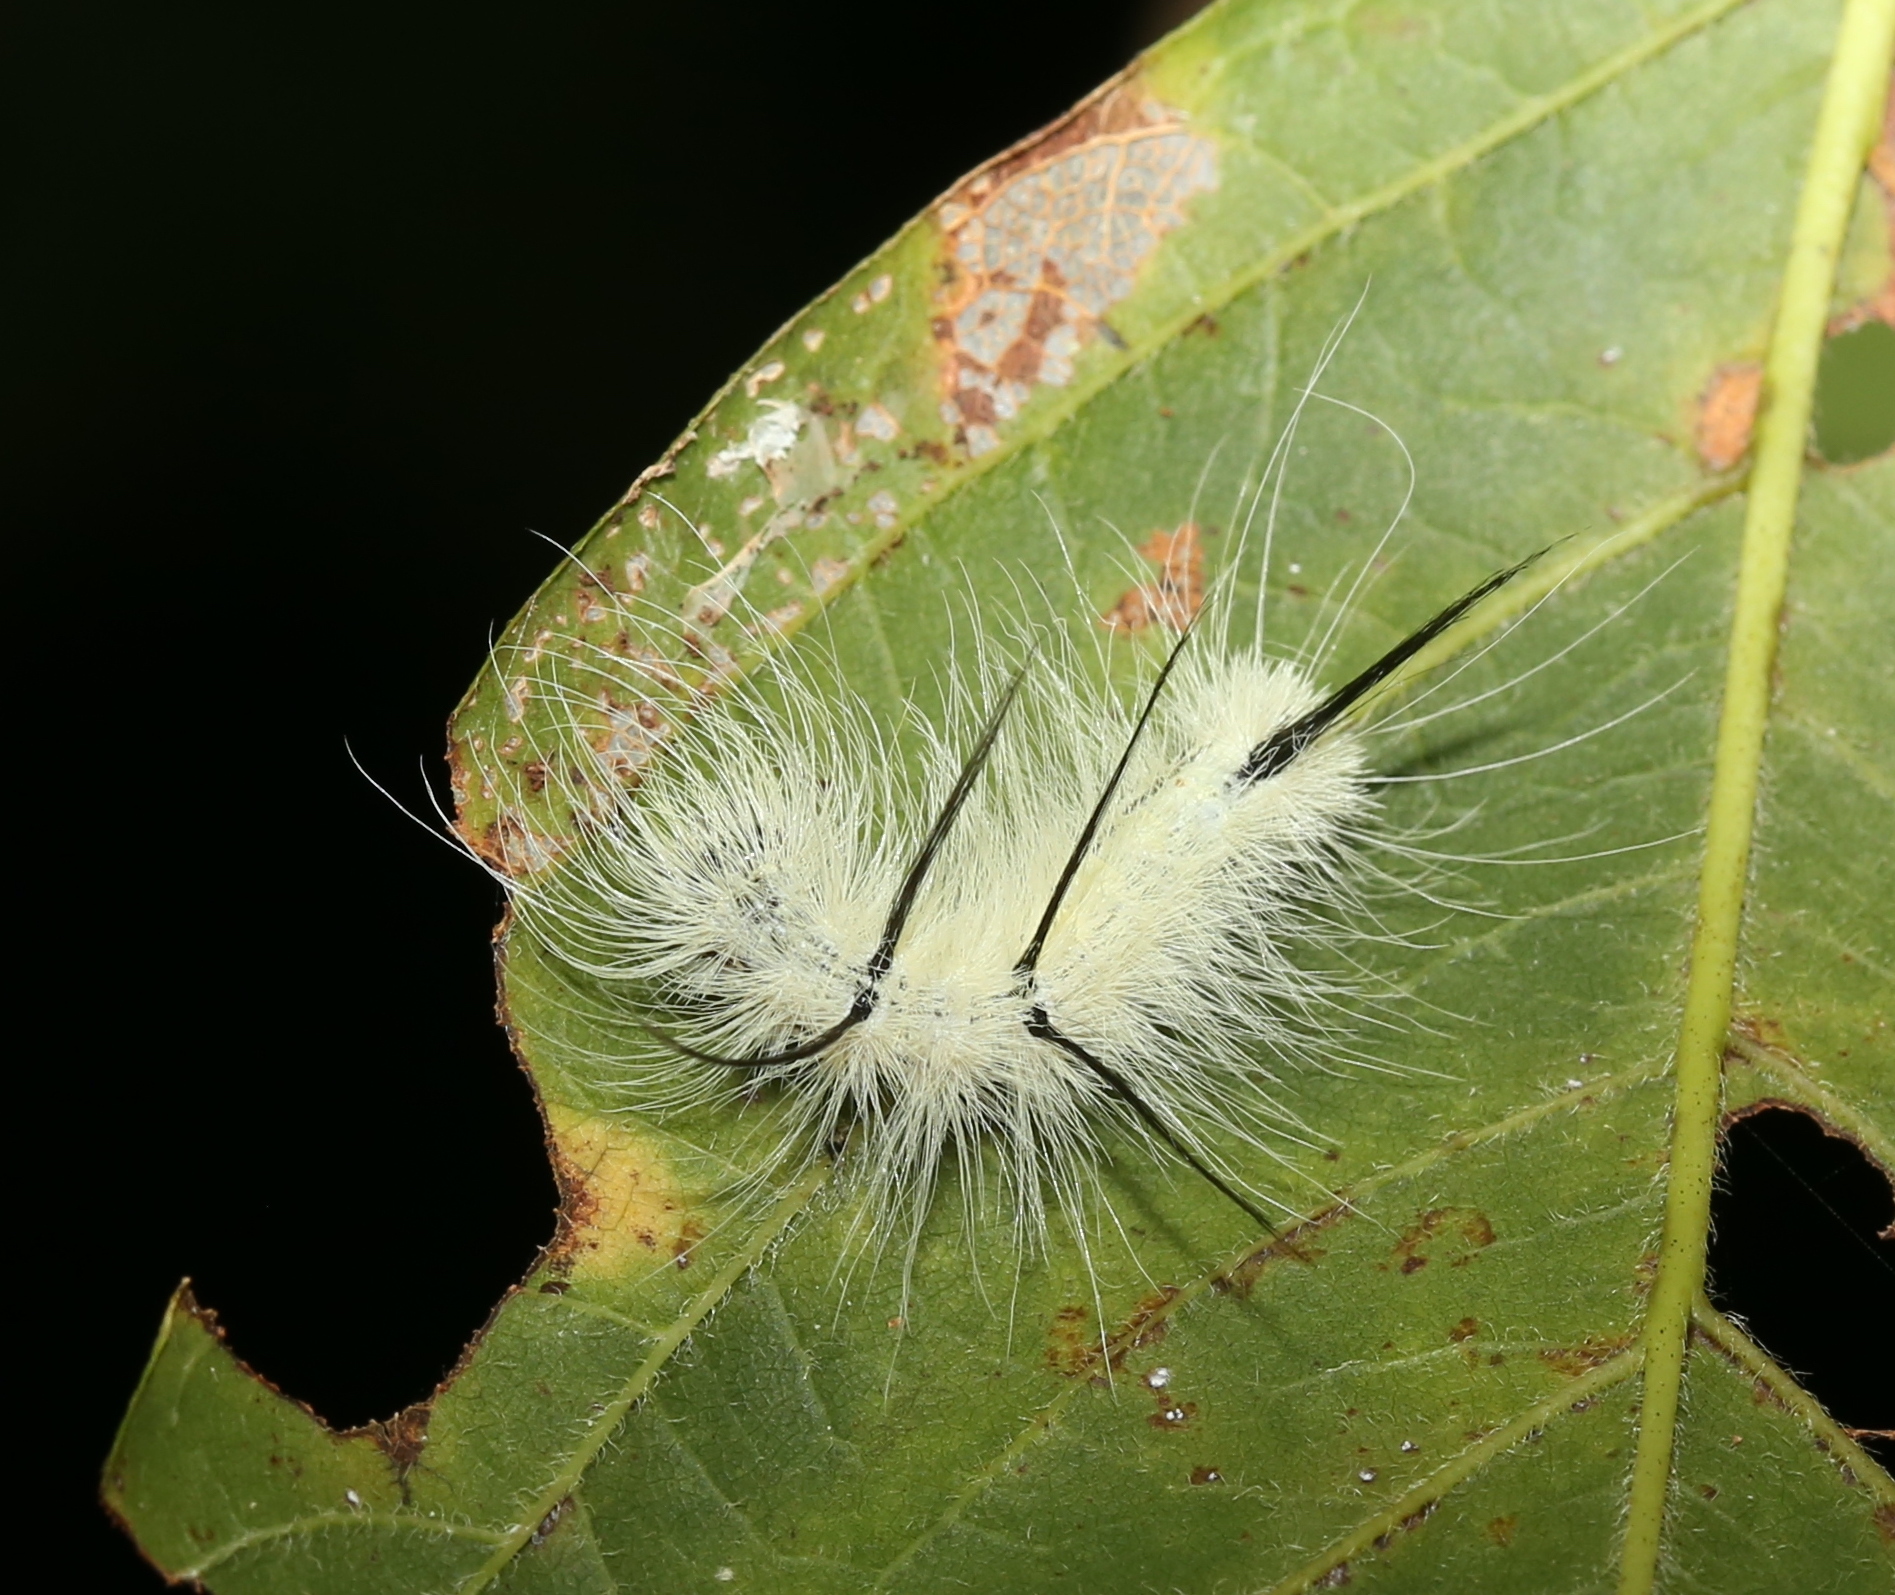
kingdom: Animalia
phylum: Arthropoda
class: Insecta
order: Lepidoptera
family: Noctuidae
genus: Acronicta
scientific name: Acronicta americana
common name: American dagger
